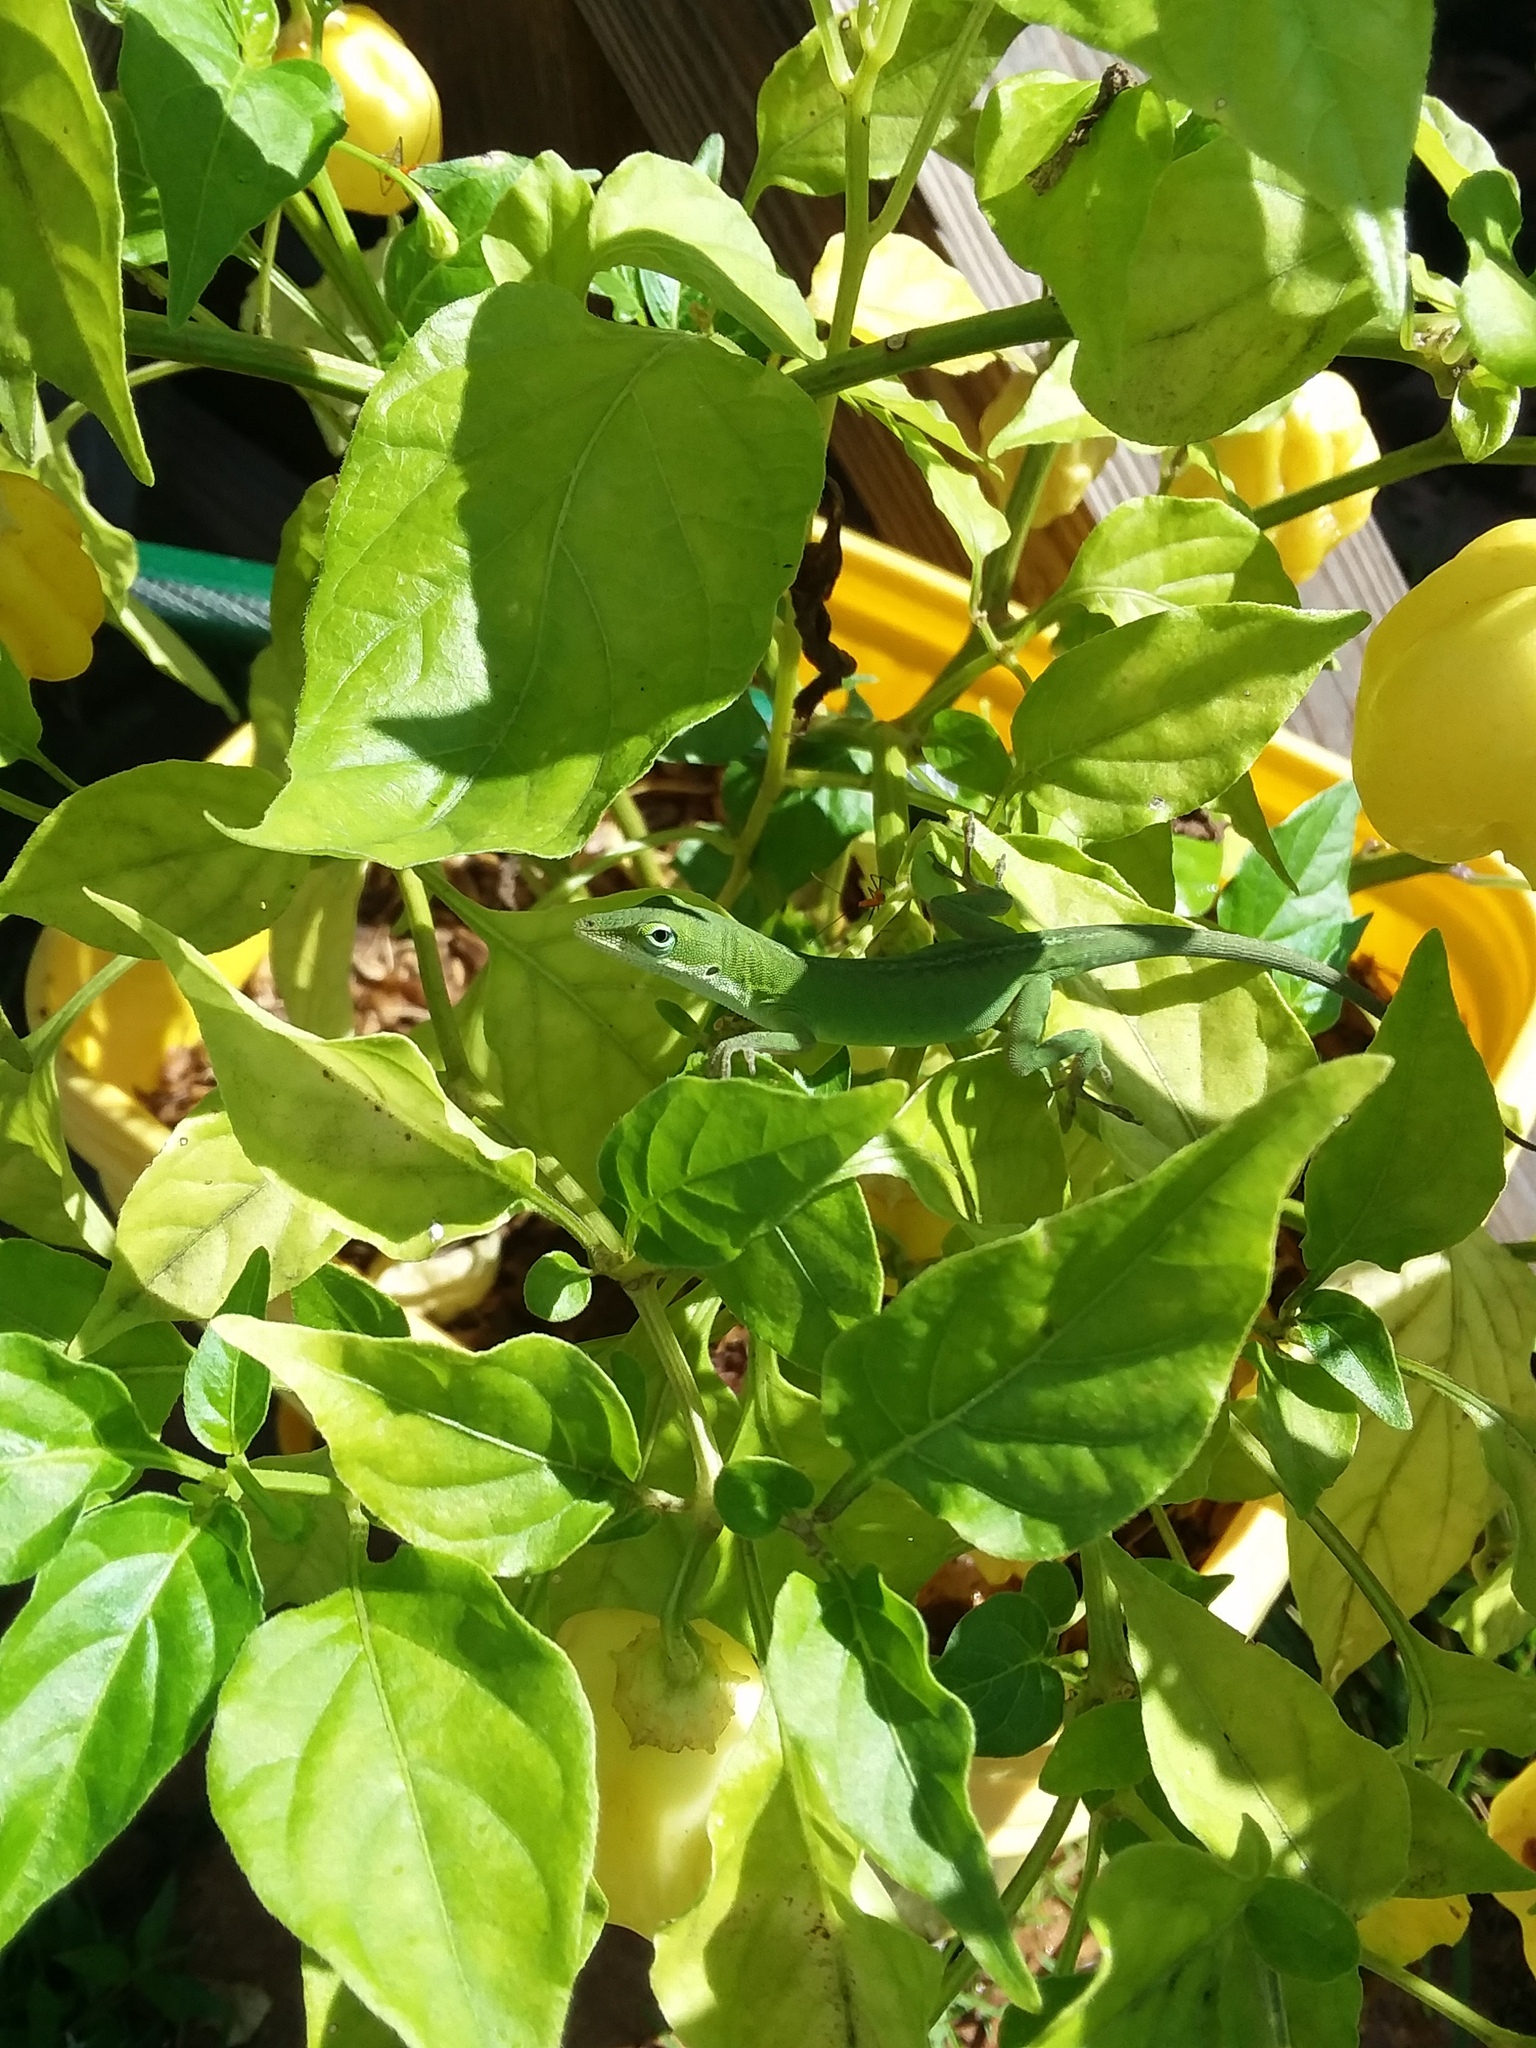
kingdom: Animalia
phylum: Chordata
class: Squamata
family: Dactyloidae
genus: Anolis
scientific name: Anolis carolinensis
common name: Green anole
